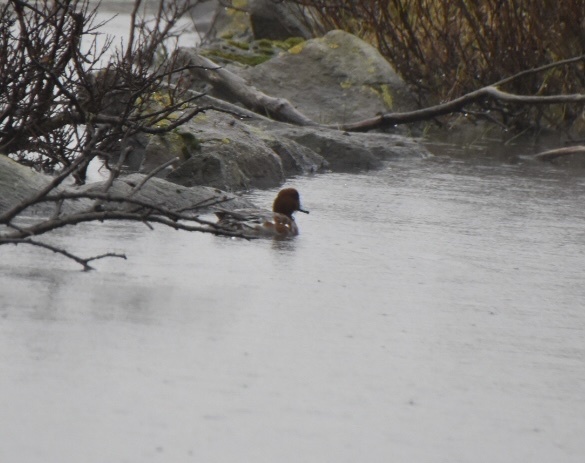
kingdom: Animalia
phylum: Chordata
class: Aves
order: Anseriformes
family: Anatidae
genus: Mareca
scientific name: Mareca penelope
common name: Eurasian wigeon
